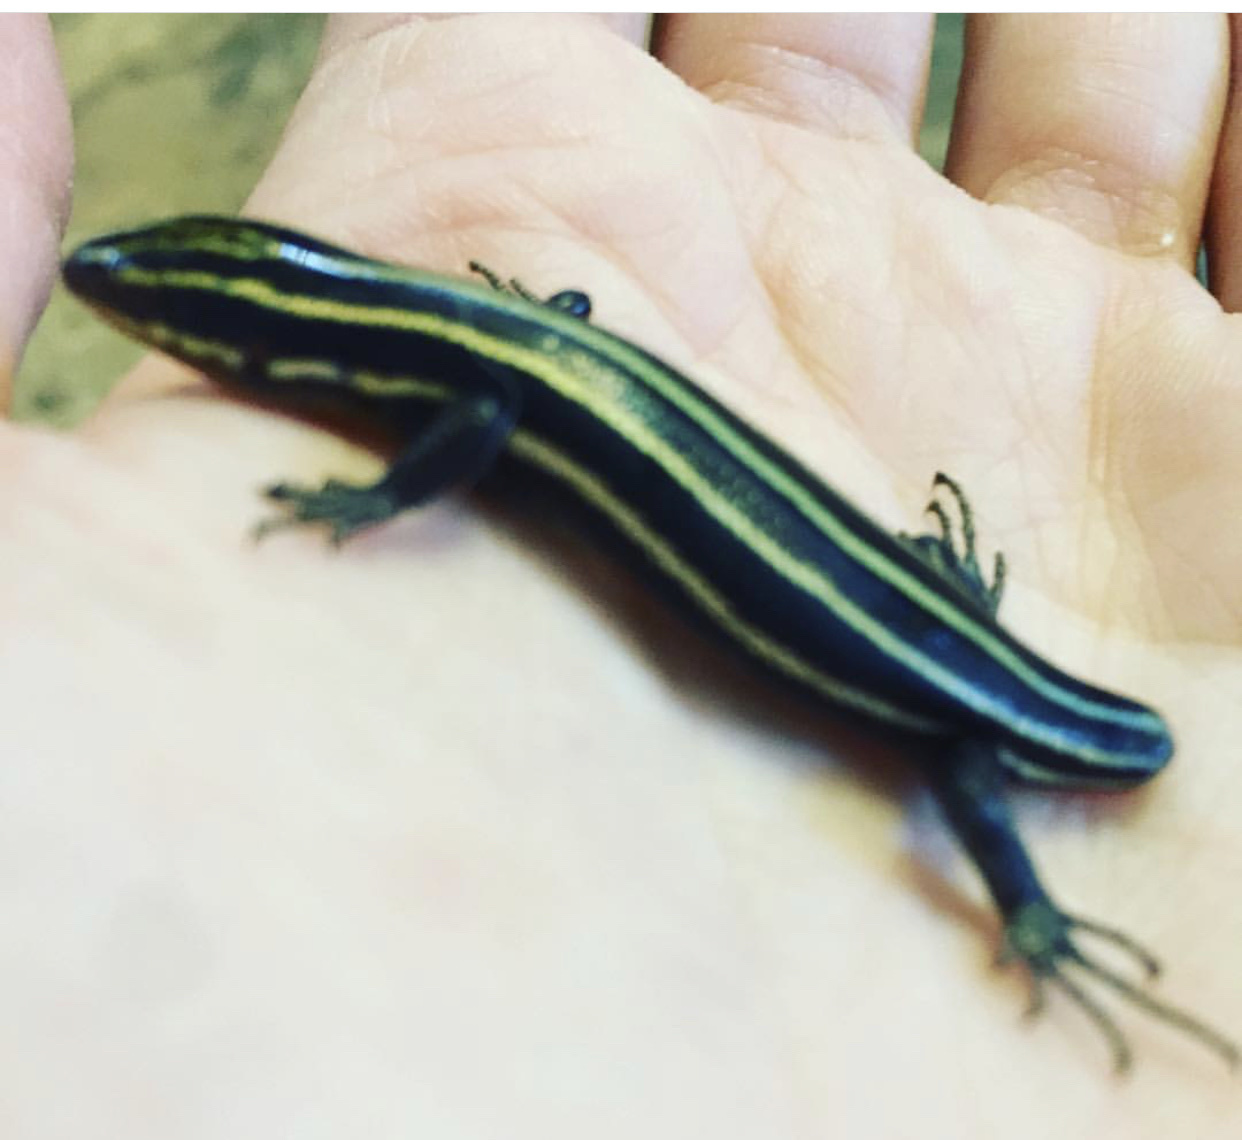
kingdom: Animalia
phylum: Chordata
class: Squamata
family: Scincidae
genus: Plestiodon
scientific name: Plestiodon fasciatus
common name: Five-lined skink
